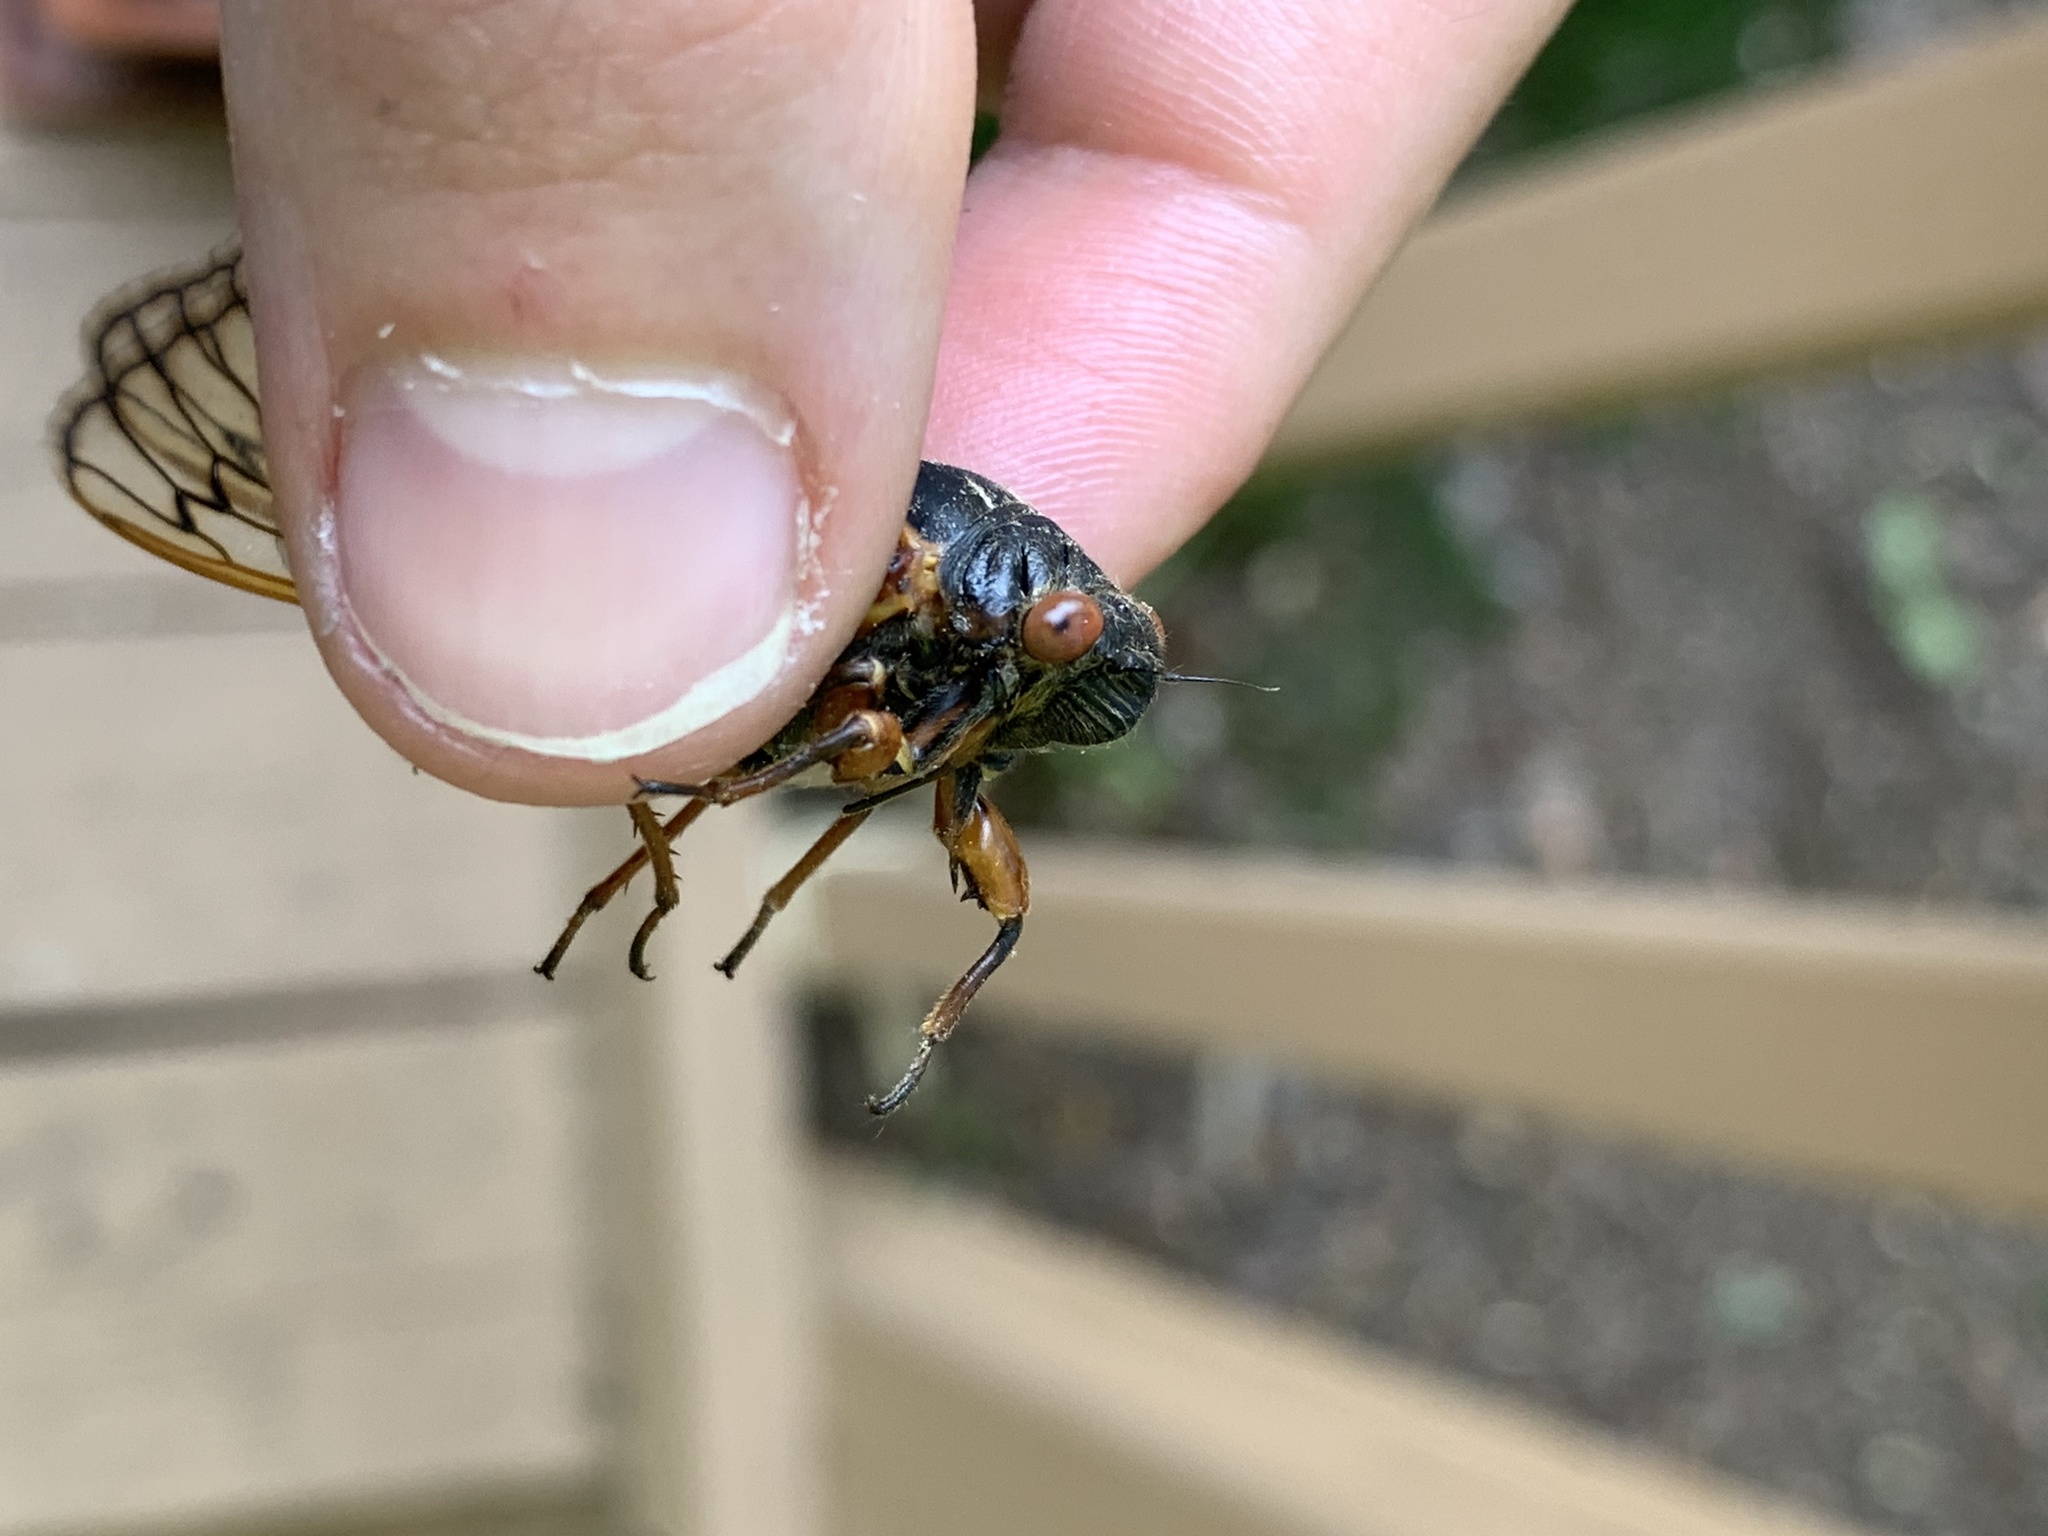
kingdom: Animalia
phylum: Arthropoda
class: Insecta
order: Hemiptera
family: Cicadidae
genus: Magicicada
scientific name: Magicicada septendecim
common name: Periodical cicada
